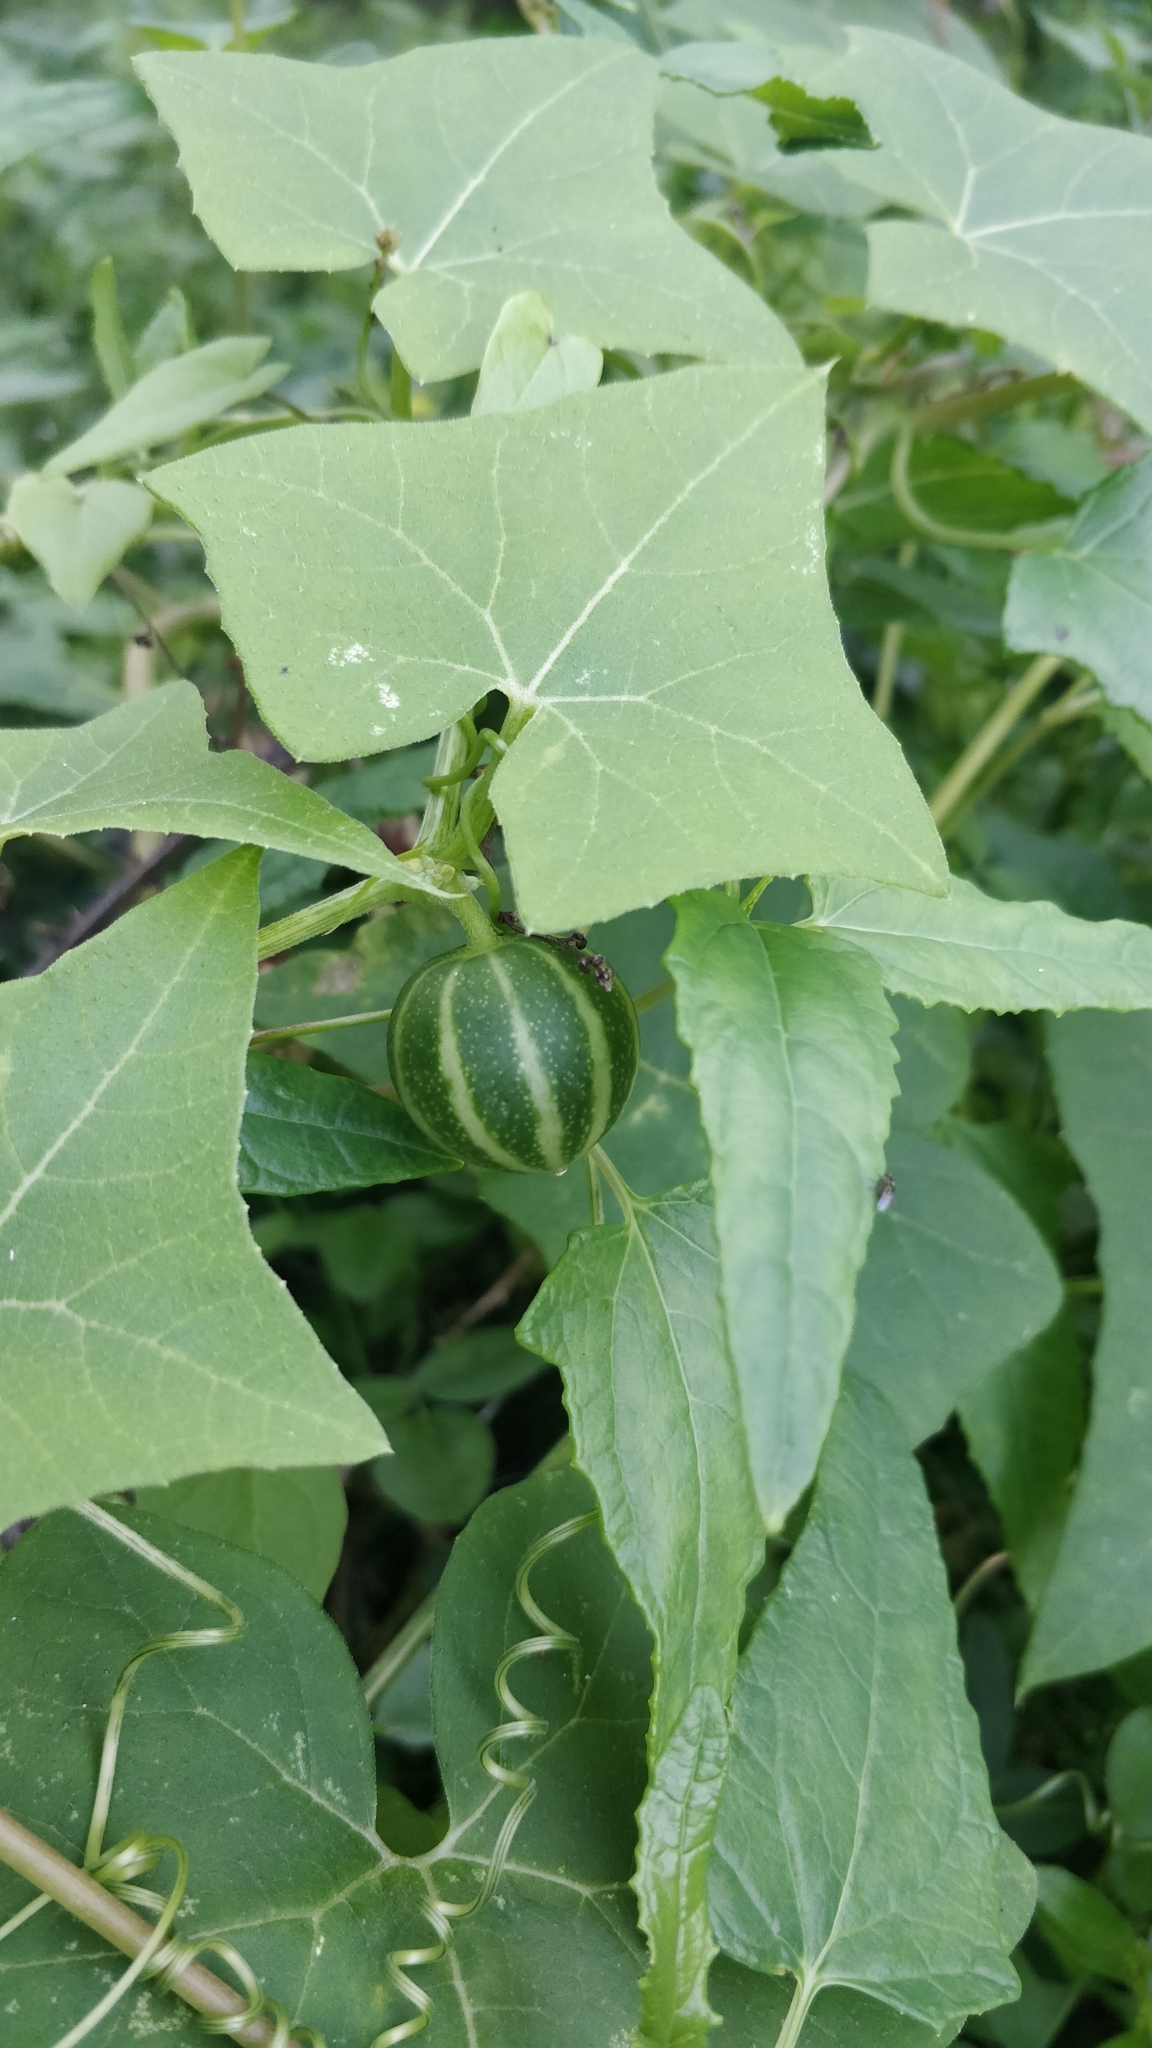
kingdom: Plantae
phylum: Tracheophyta
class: Magnoliopsida
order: Cucurbitales
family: Cucurbitaceae
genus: Bryonia
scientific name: Bryonia verrucosa
